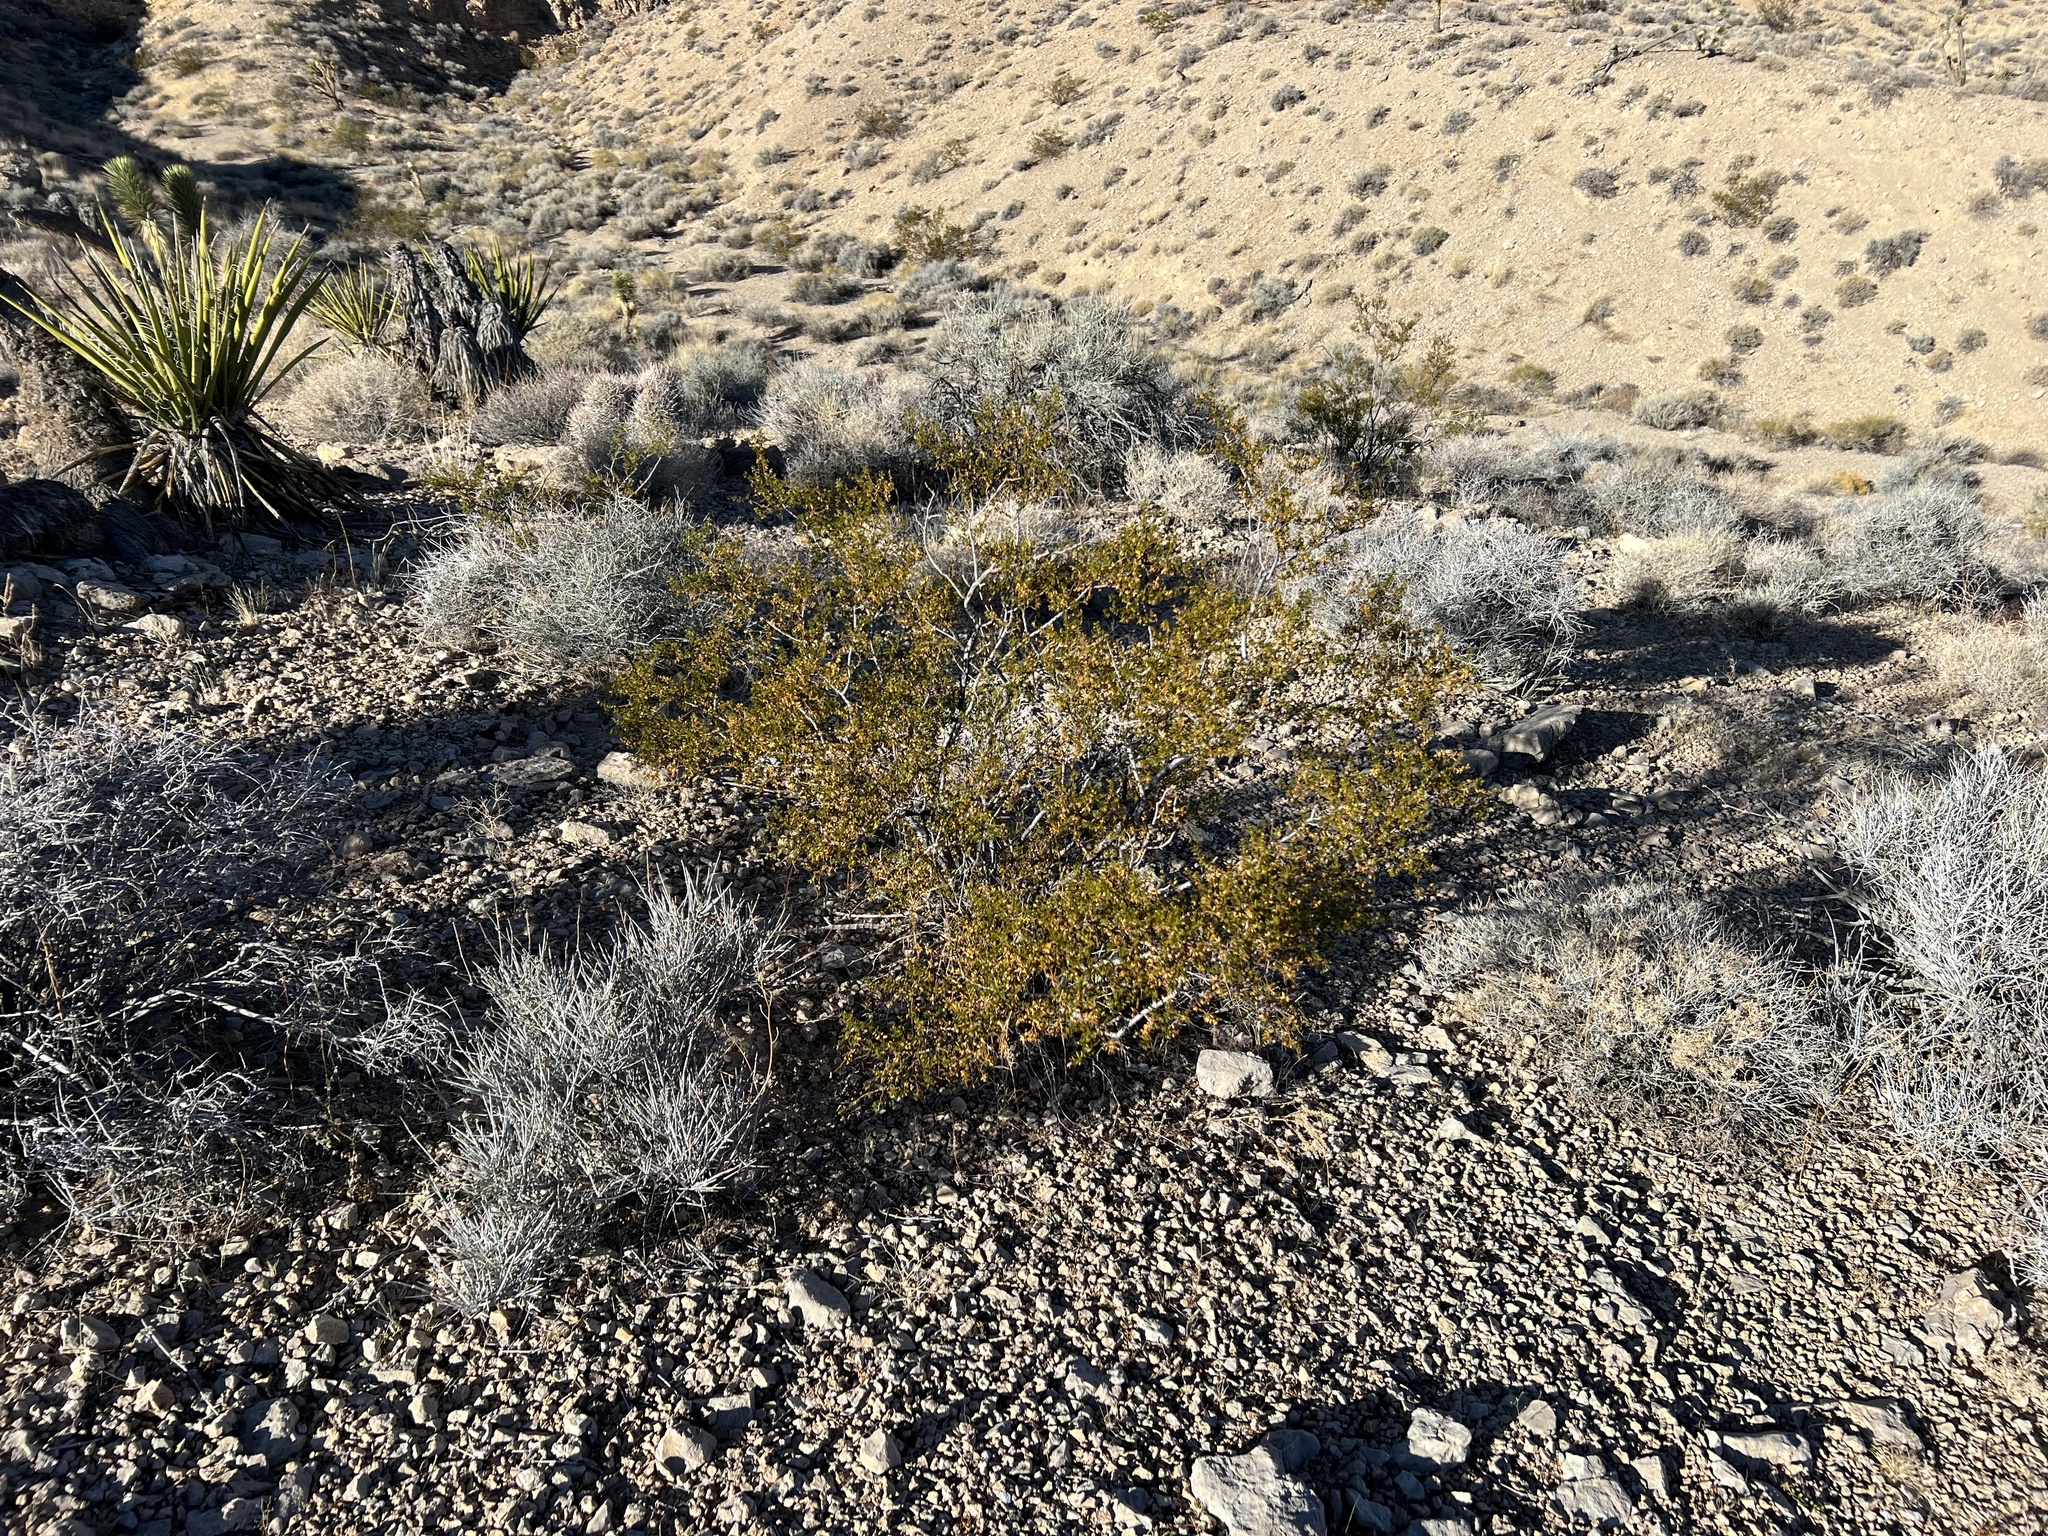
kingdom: Plantae
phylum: Tracheophyta
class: Magnoliopsida
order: Zygophyllales
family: Zygophyllaceae
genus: Larrea
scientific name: Larrea tridentata
